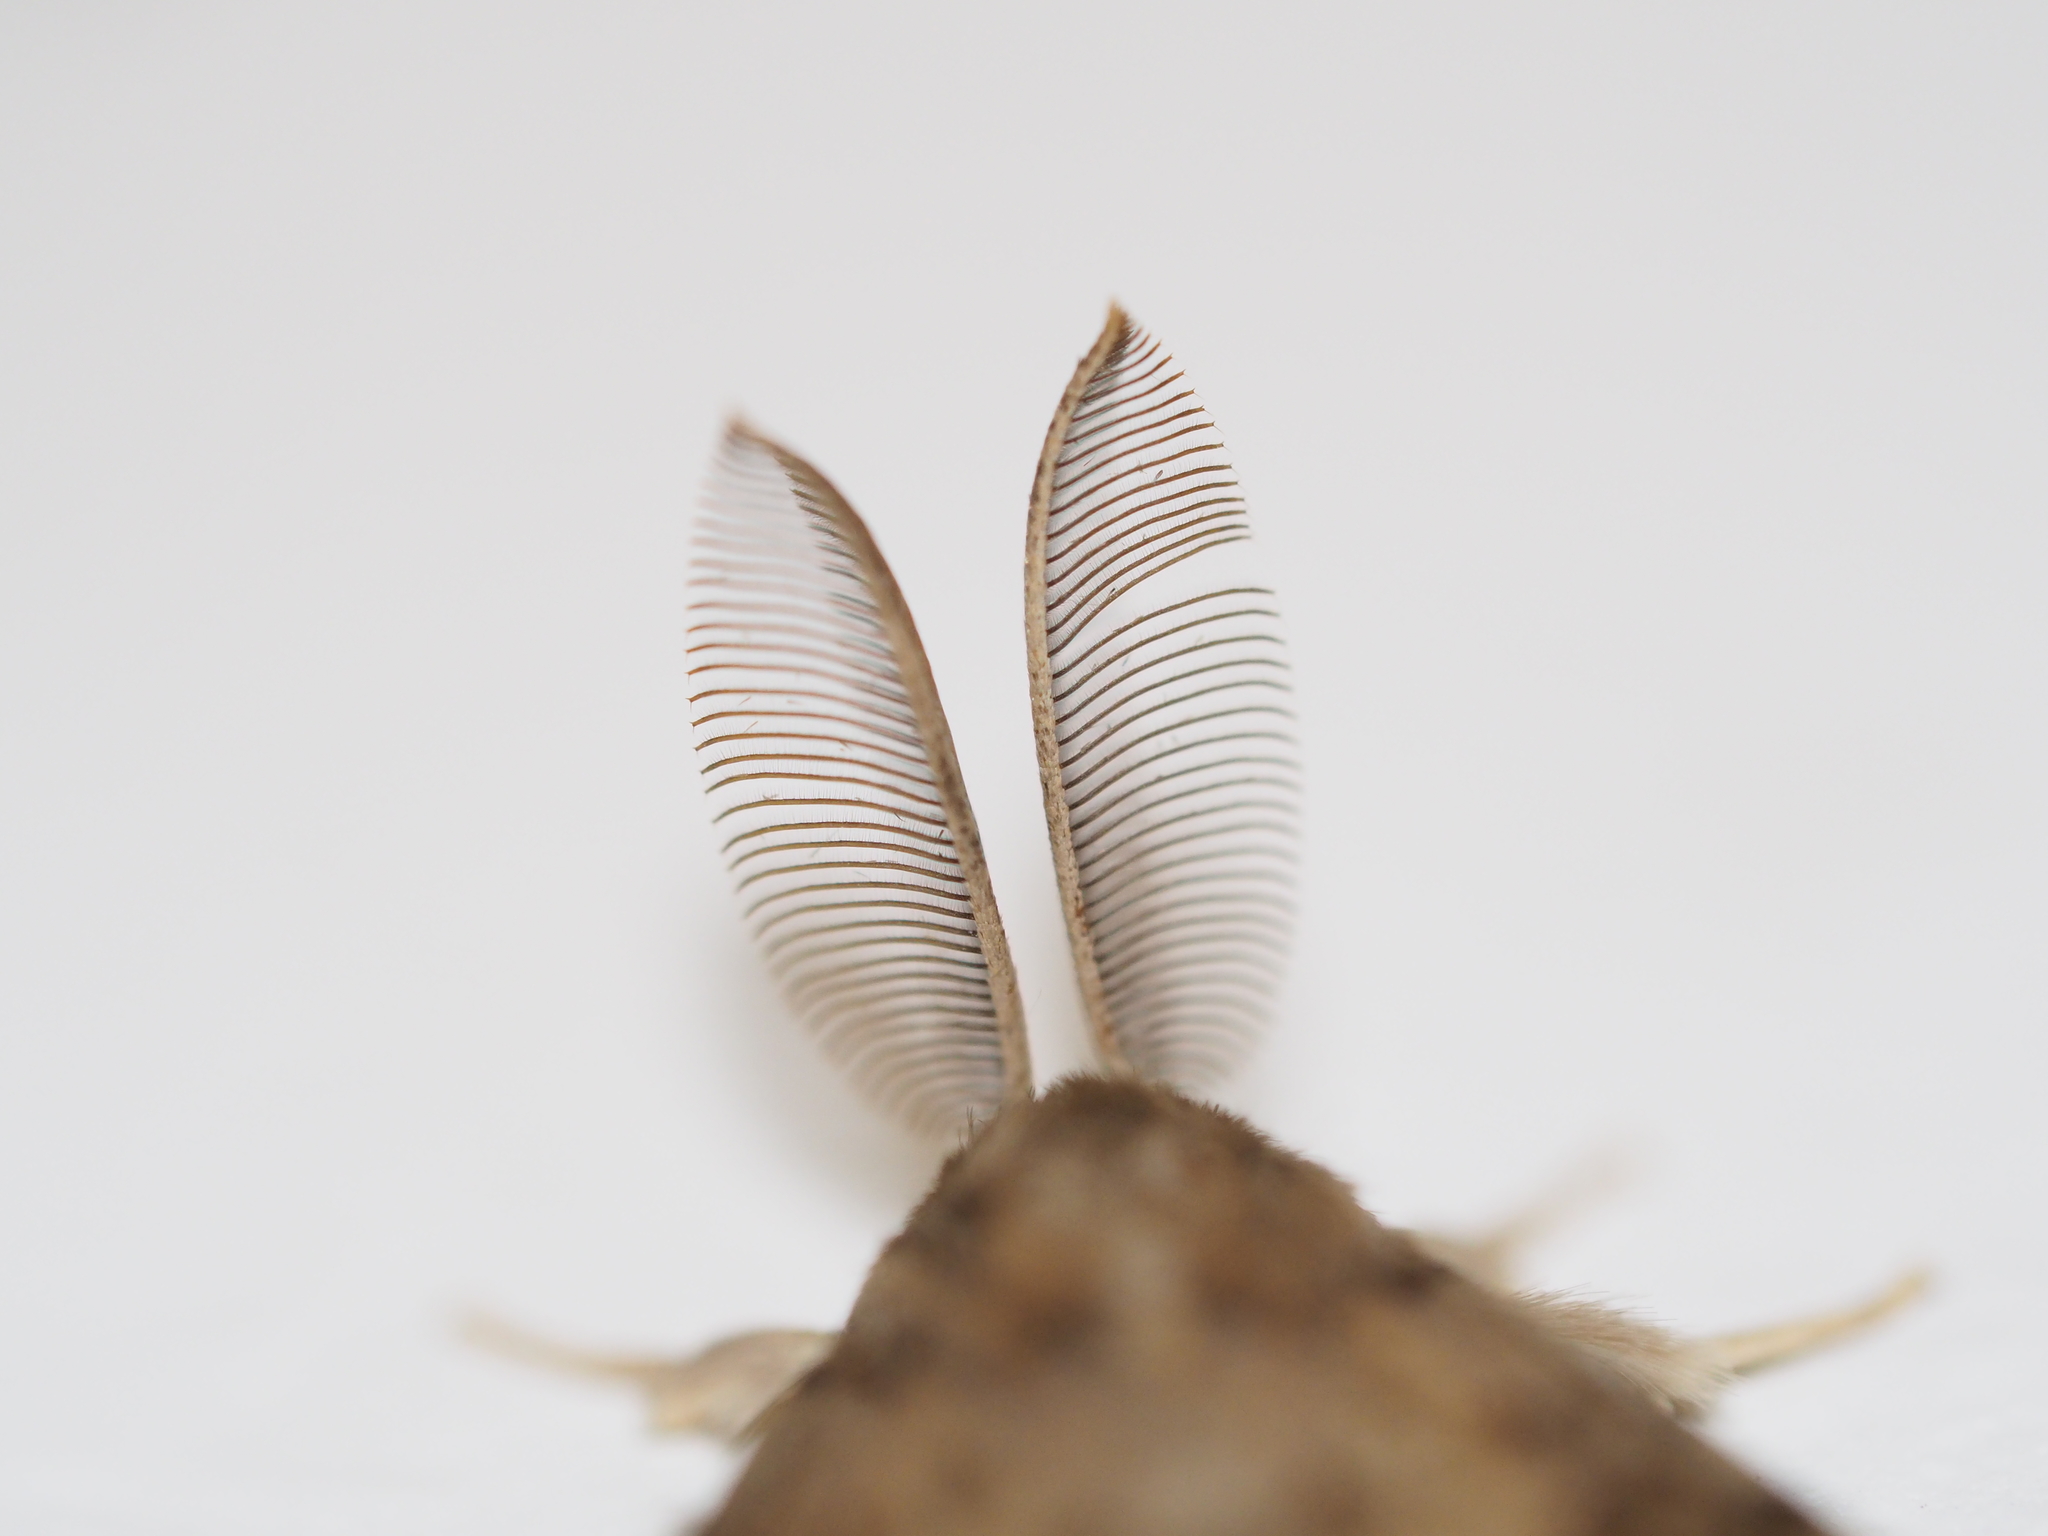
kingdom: Animalia
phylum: Arthropoda
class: Insecta
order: Lepidoptera
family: Erebidae
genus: Lymantria
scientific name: Lymantria dispar
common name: Gypsy moth
